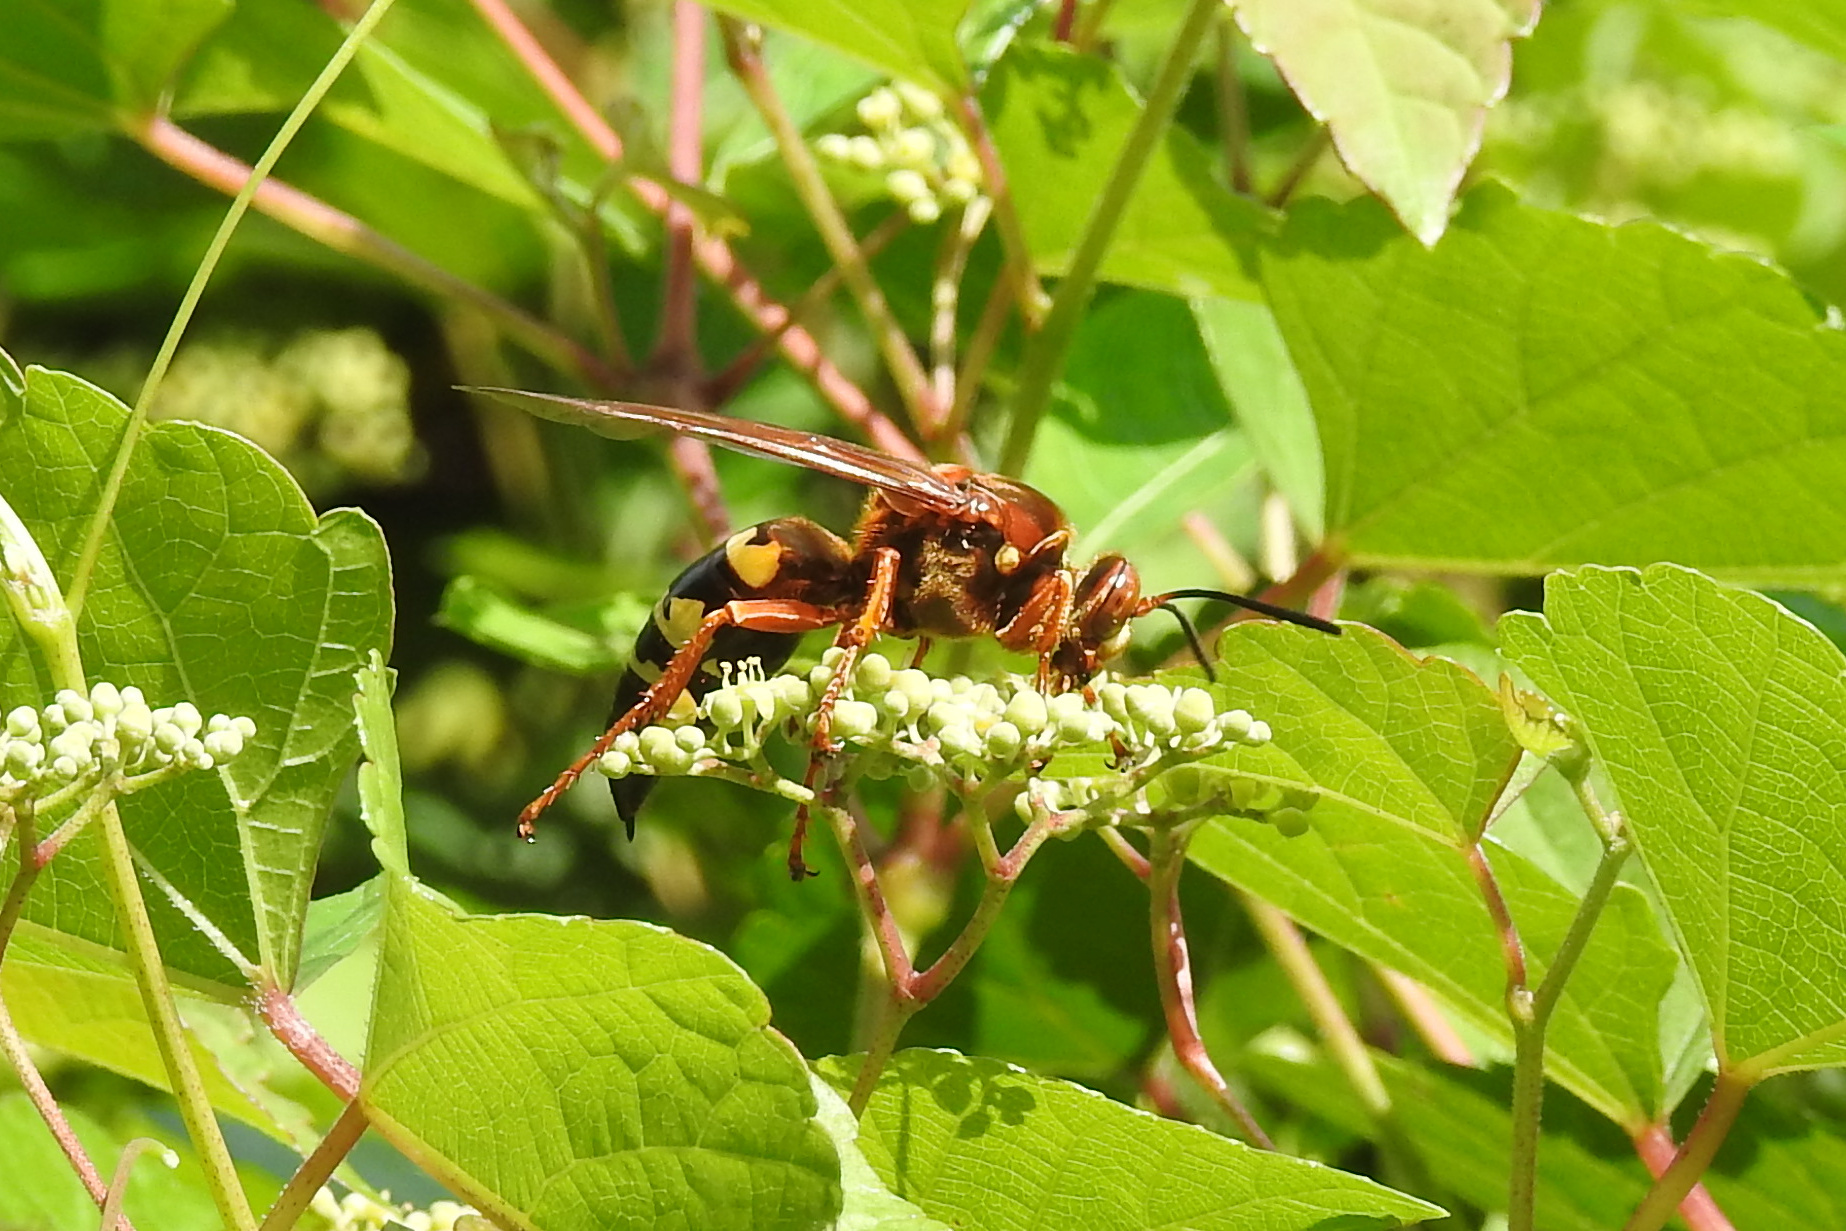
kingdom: Animalia
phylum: Arthropoda
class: Insecta
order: Hymenoptera
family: Crabronidae
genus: Sphecius
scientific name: Sphecius speciosus
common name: Cicada killer
